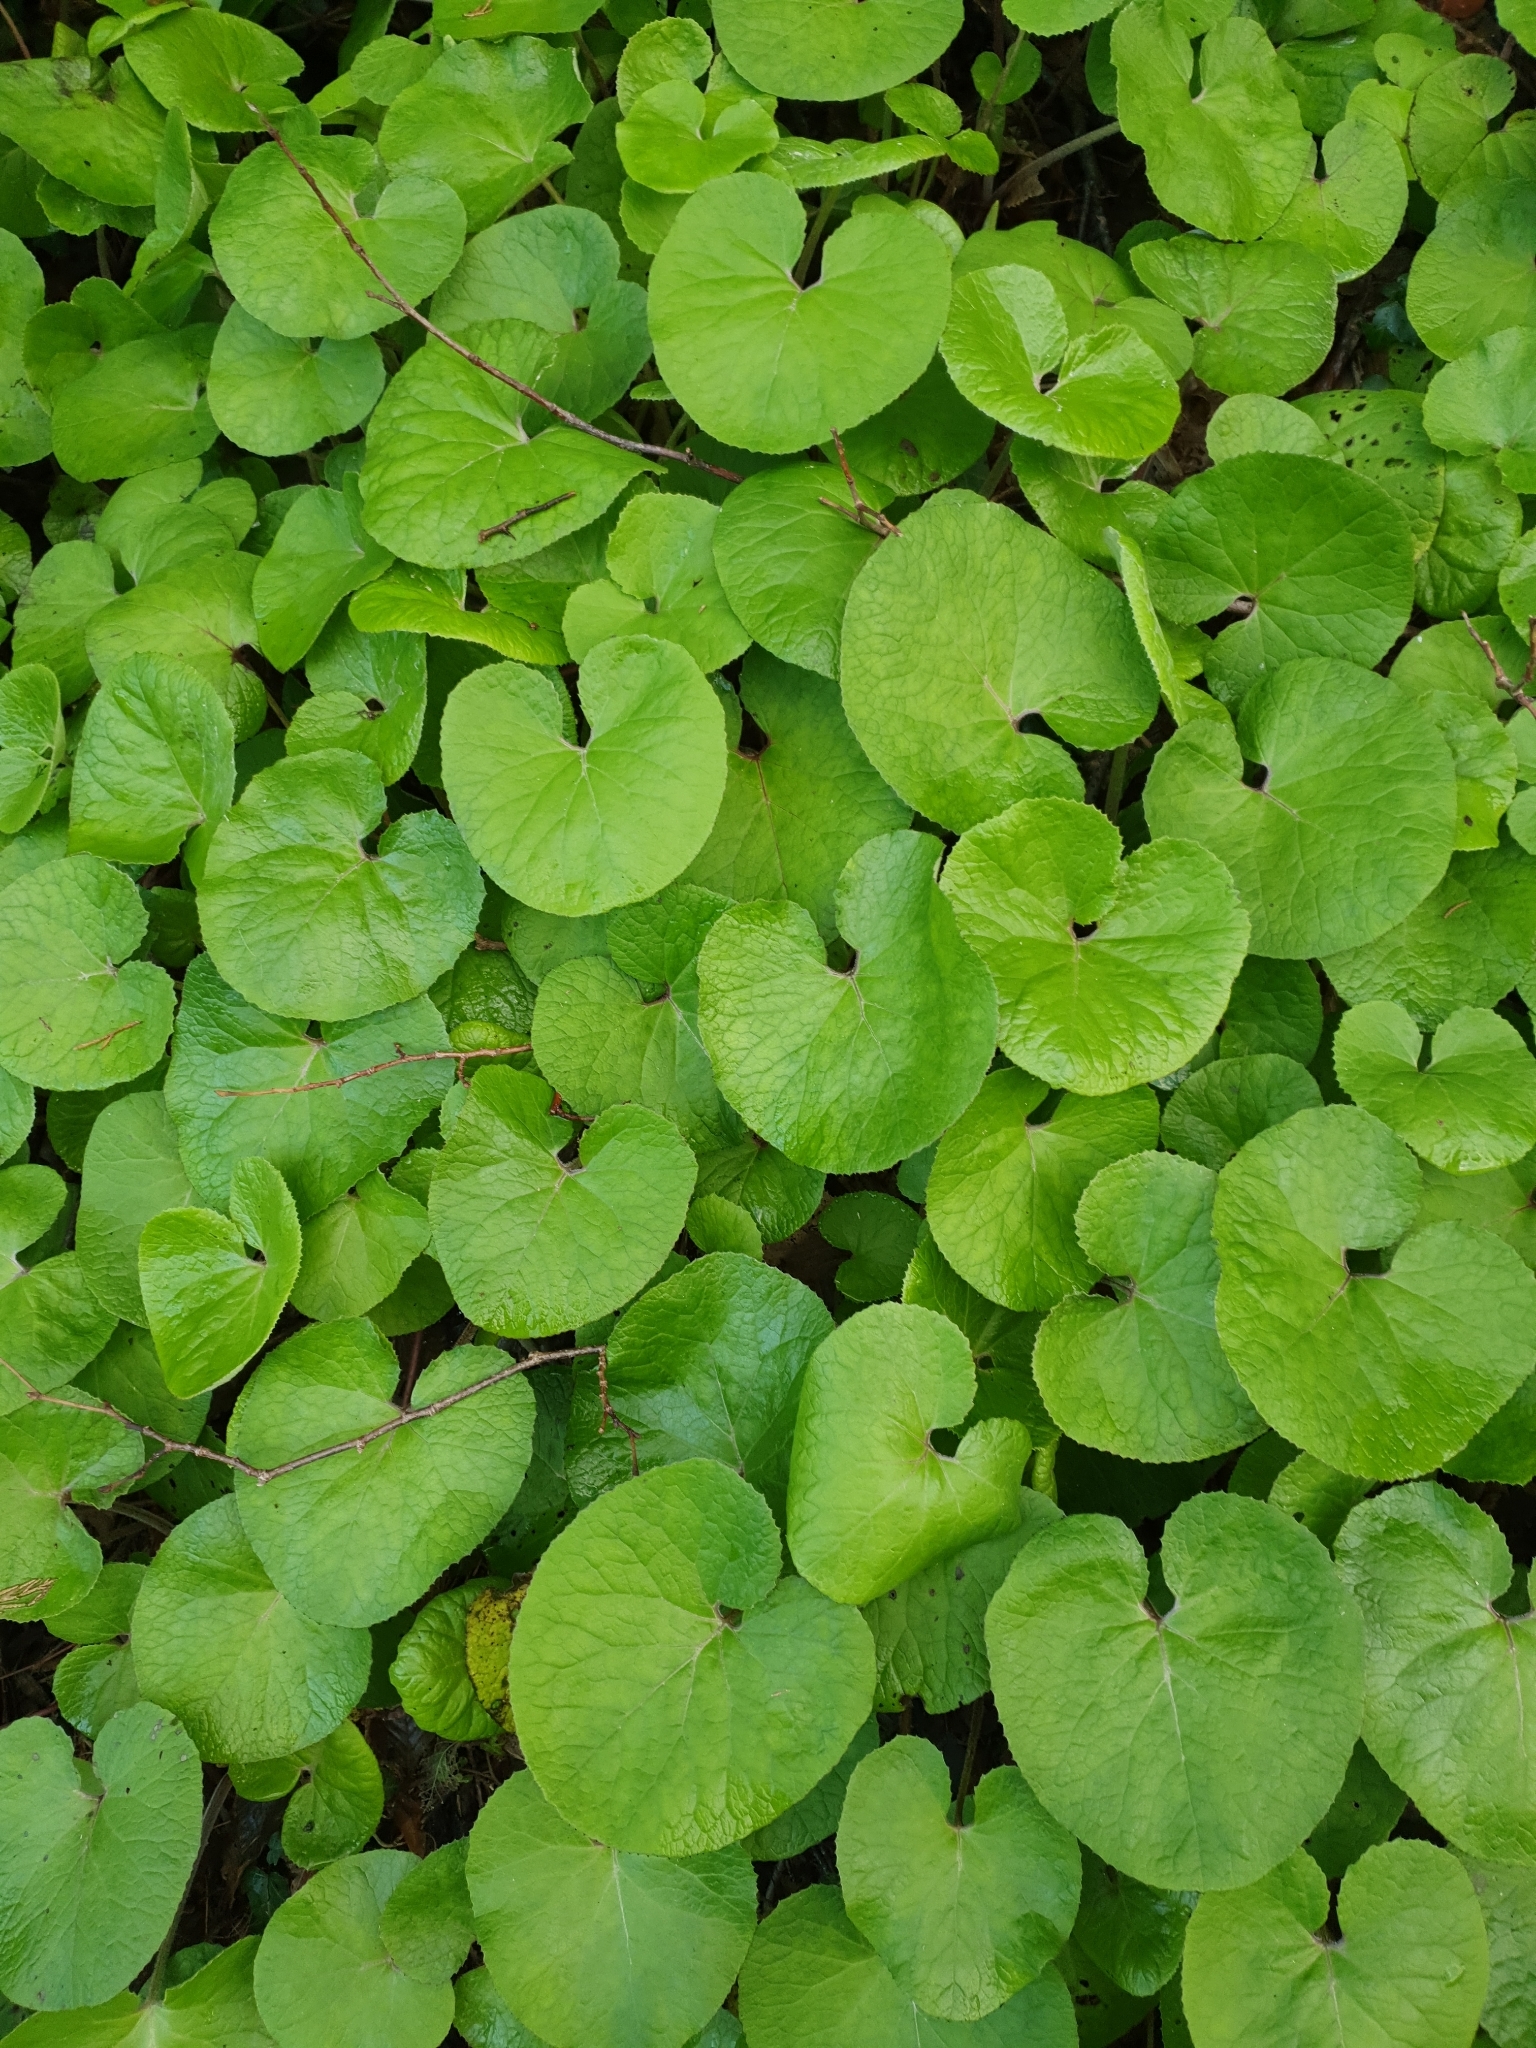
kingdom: Plantae
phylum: Tracheophyta
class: Magnoliopsida
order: Asterales
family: Asteraceae
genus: Petasites
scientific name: Petasites pyrenaicus
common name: Winter heliotrope
